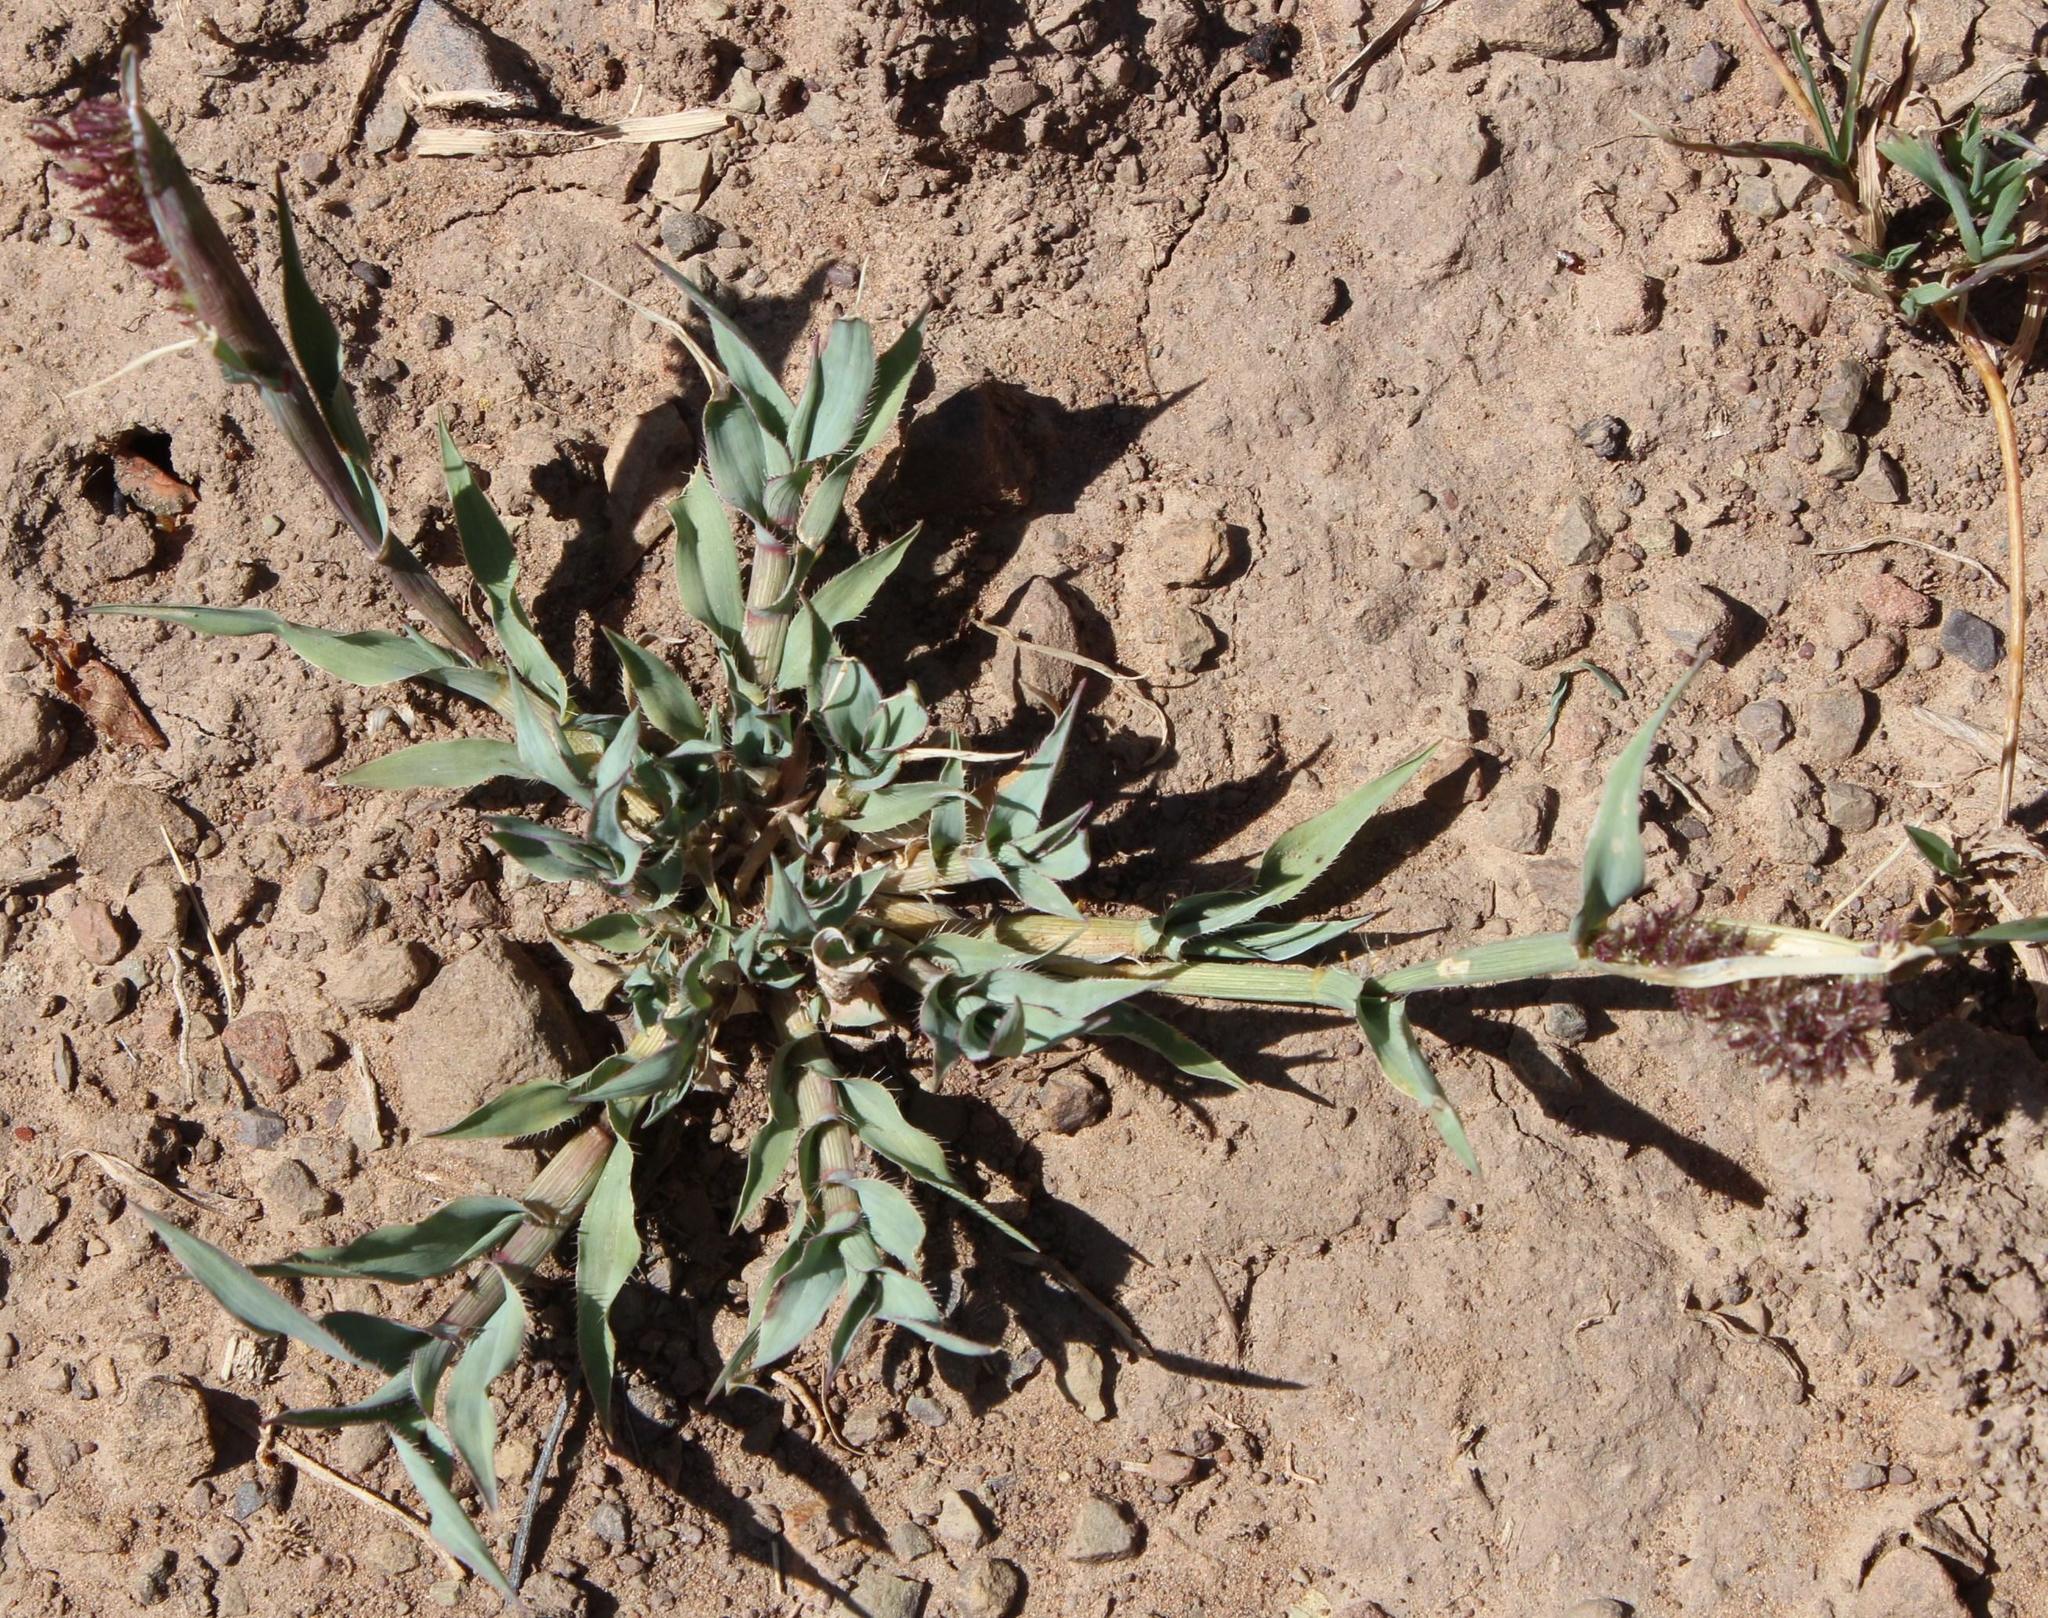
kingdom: Plantae
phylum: Tracheophyta
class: Liliopsida
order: Poales
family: Poaceae
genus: Tragus
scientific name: Tragus berteronianus
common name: African bur-grass
